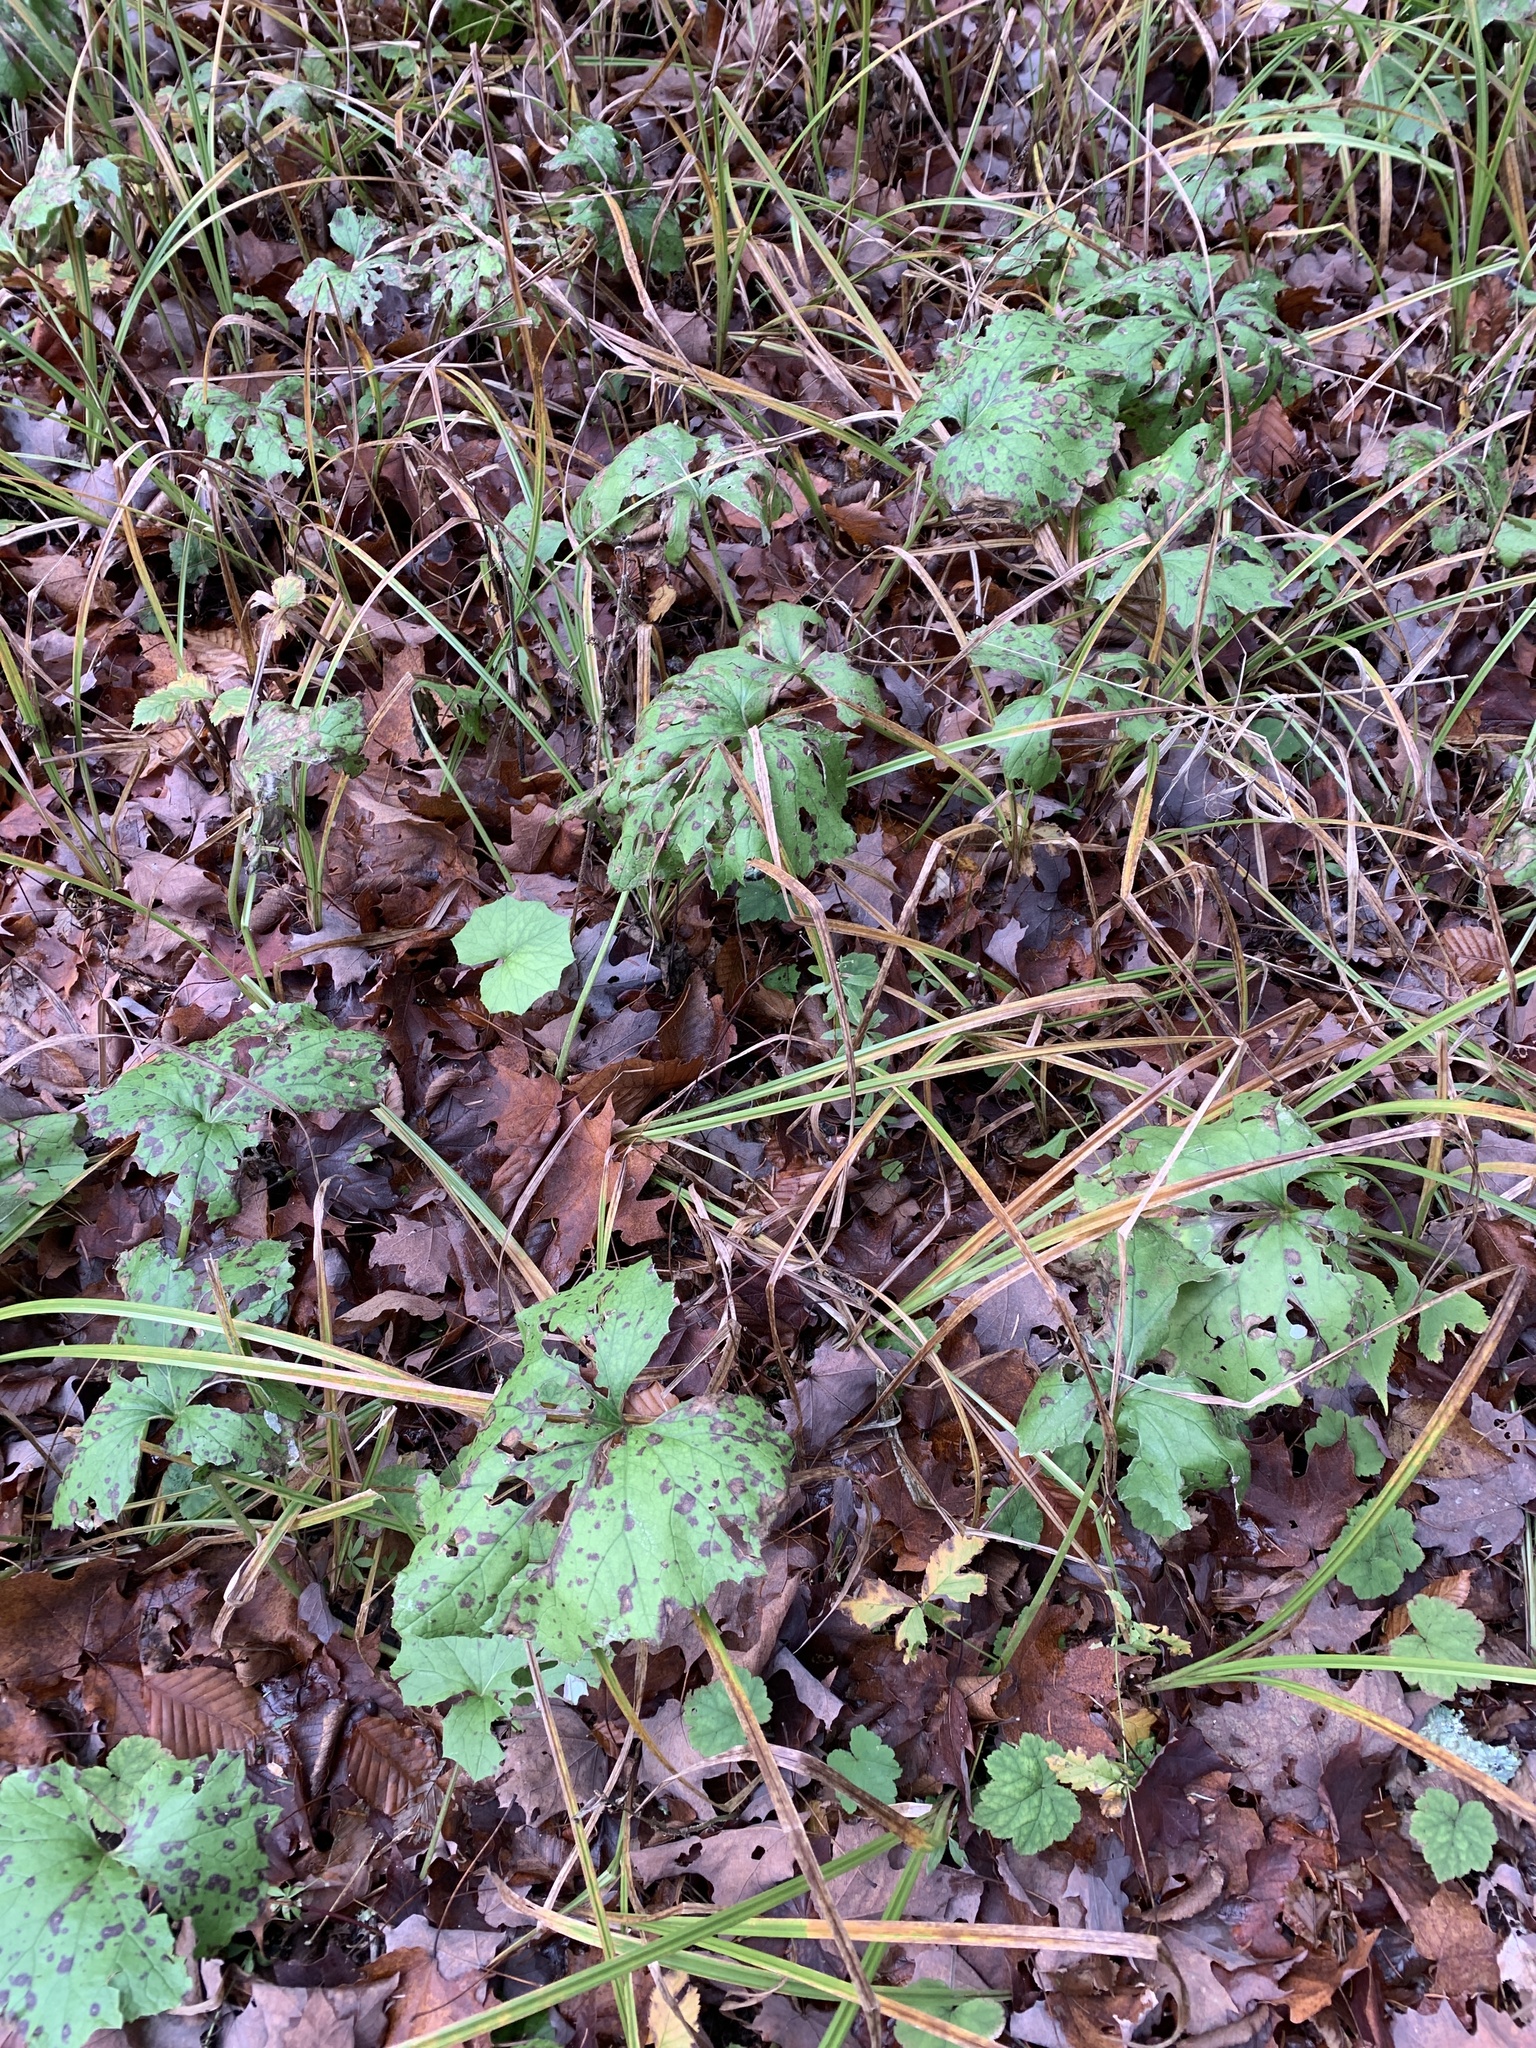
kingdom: Plantae
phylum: Tracheophyta
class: Magnoliopsida
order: Asterales
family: Asteraceae
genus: Tussilago
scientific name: Tussilago farfara
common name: Coltsfoot
